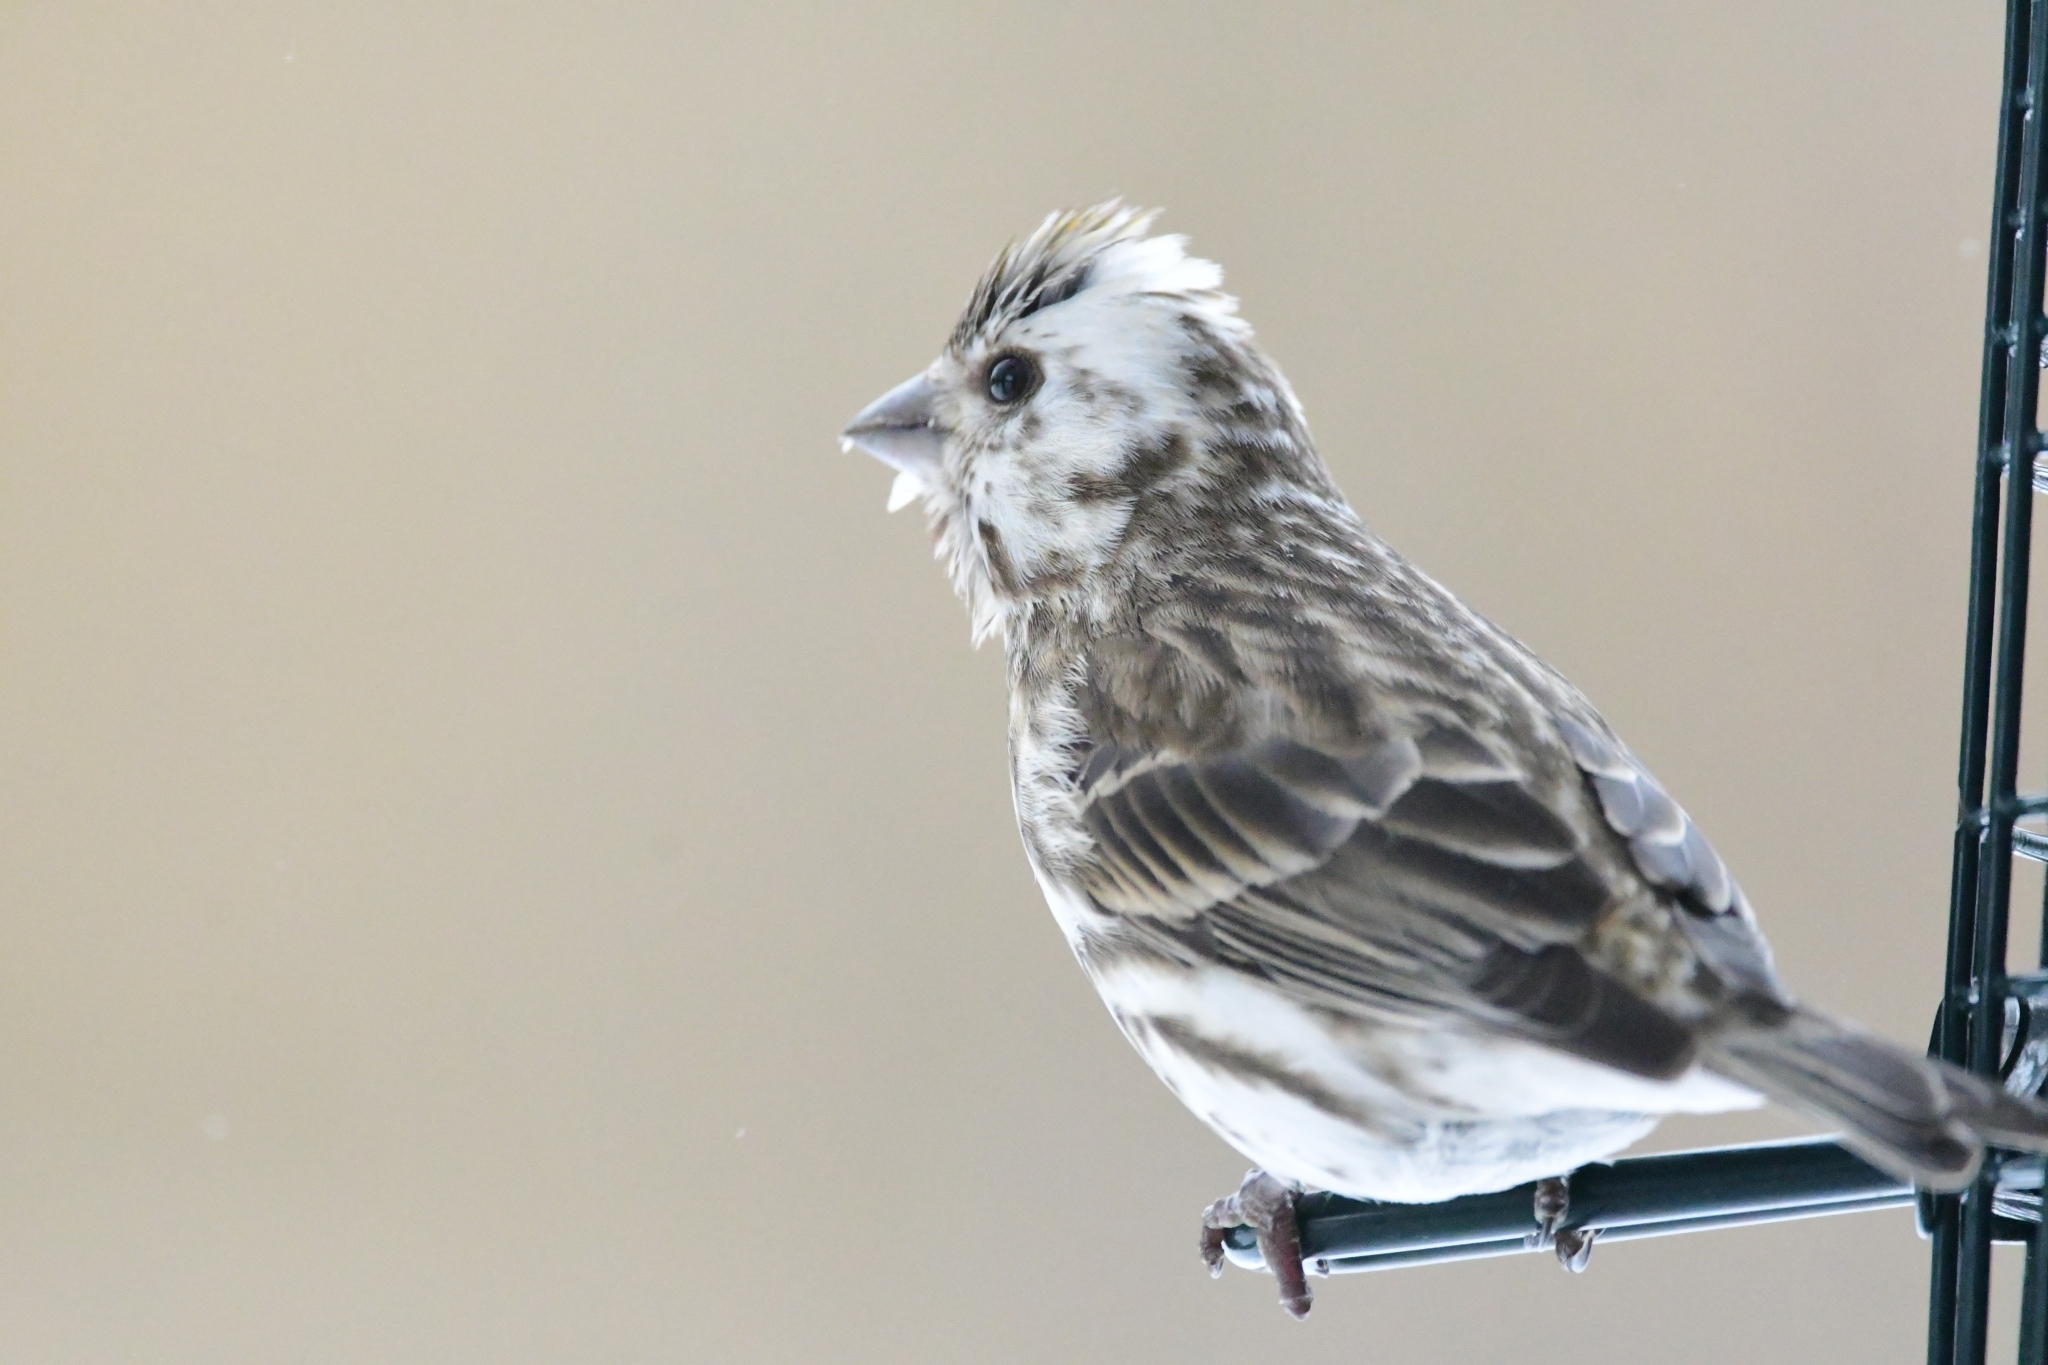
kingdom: Animalia
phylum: Chordata
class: Aves
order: Passeriformes
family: Fringillidae
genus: Haemorhous
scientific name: Haemorhous purpureus
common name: Purple finch
